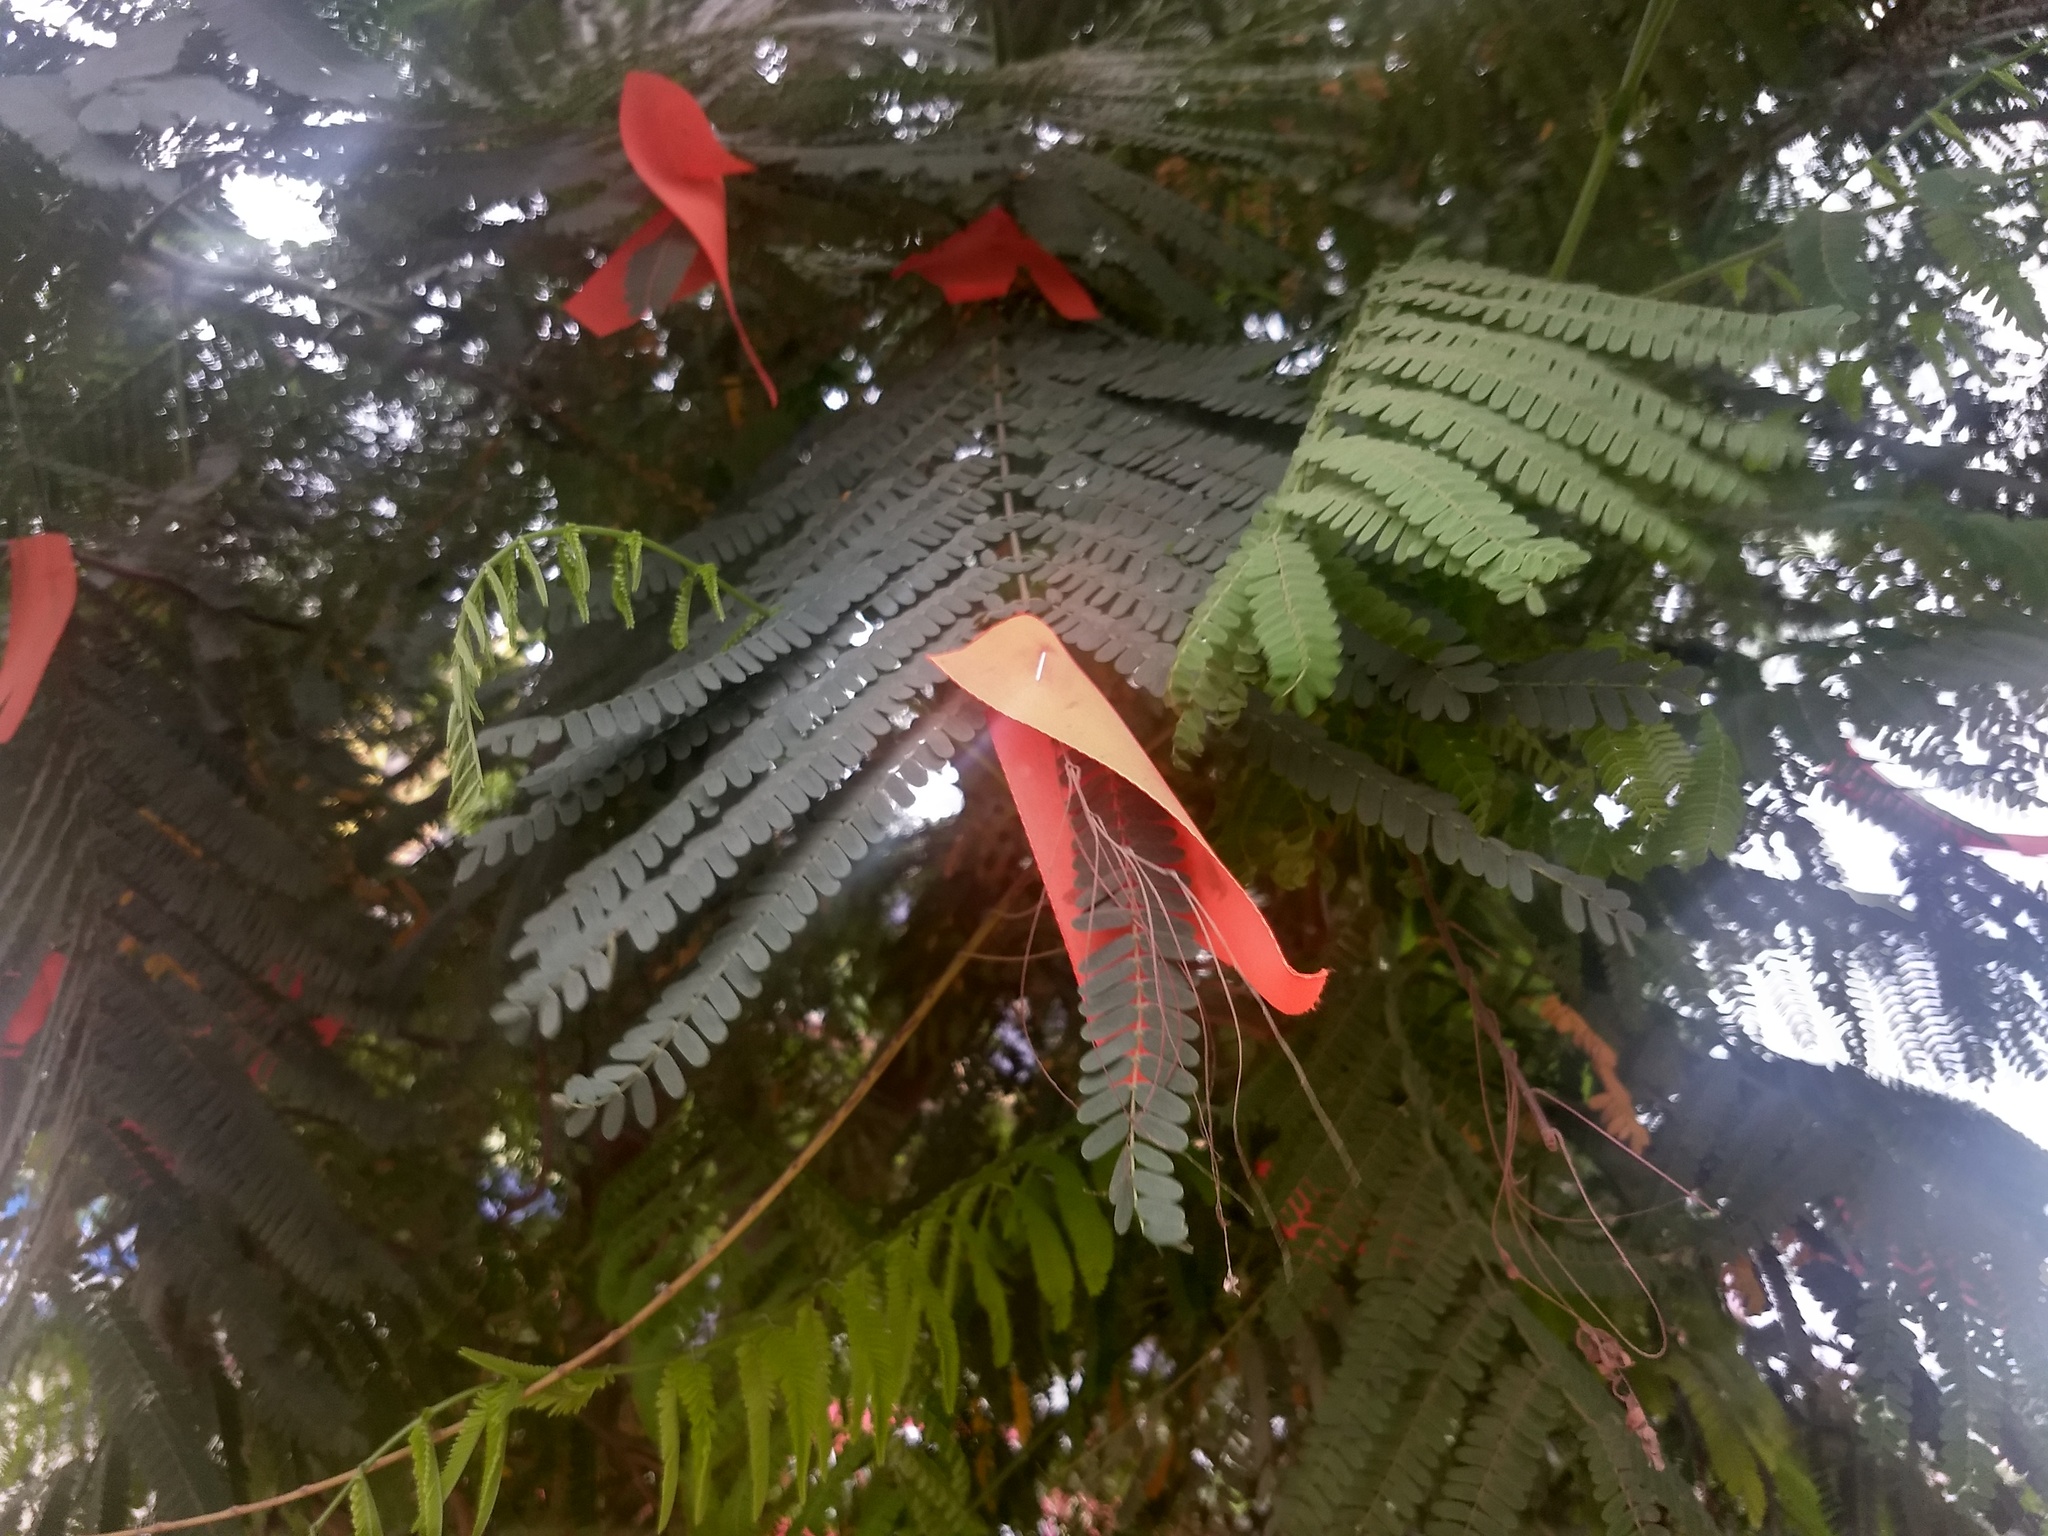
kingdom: Plantae
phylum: Tracheophyta
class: Magnoliopsida
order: Fabales
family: Fabaceae
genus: Delonix
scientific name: Delonix regia
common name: Royal poinciana
